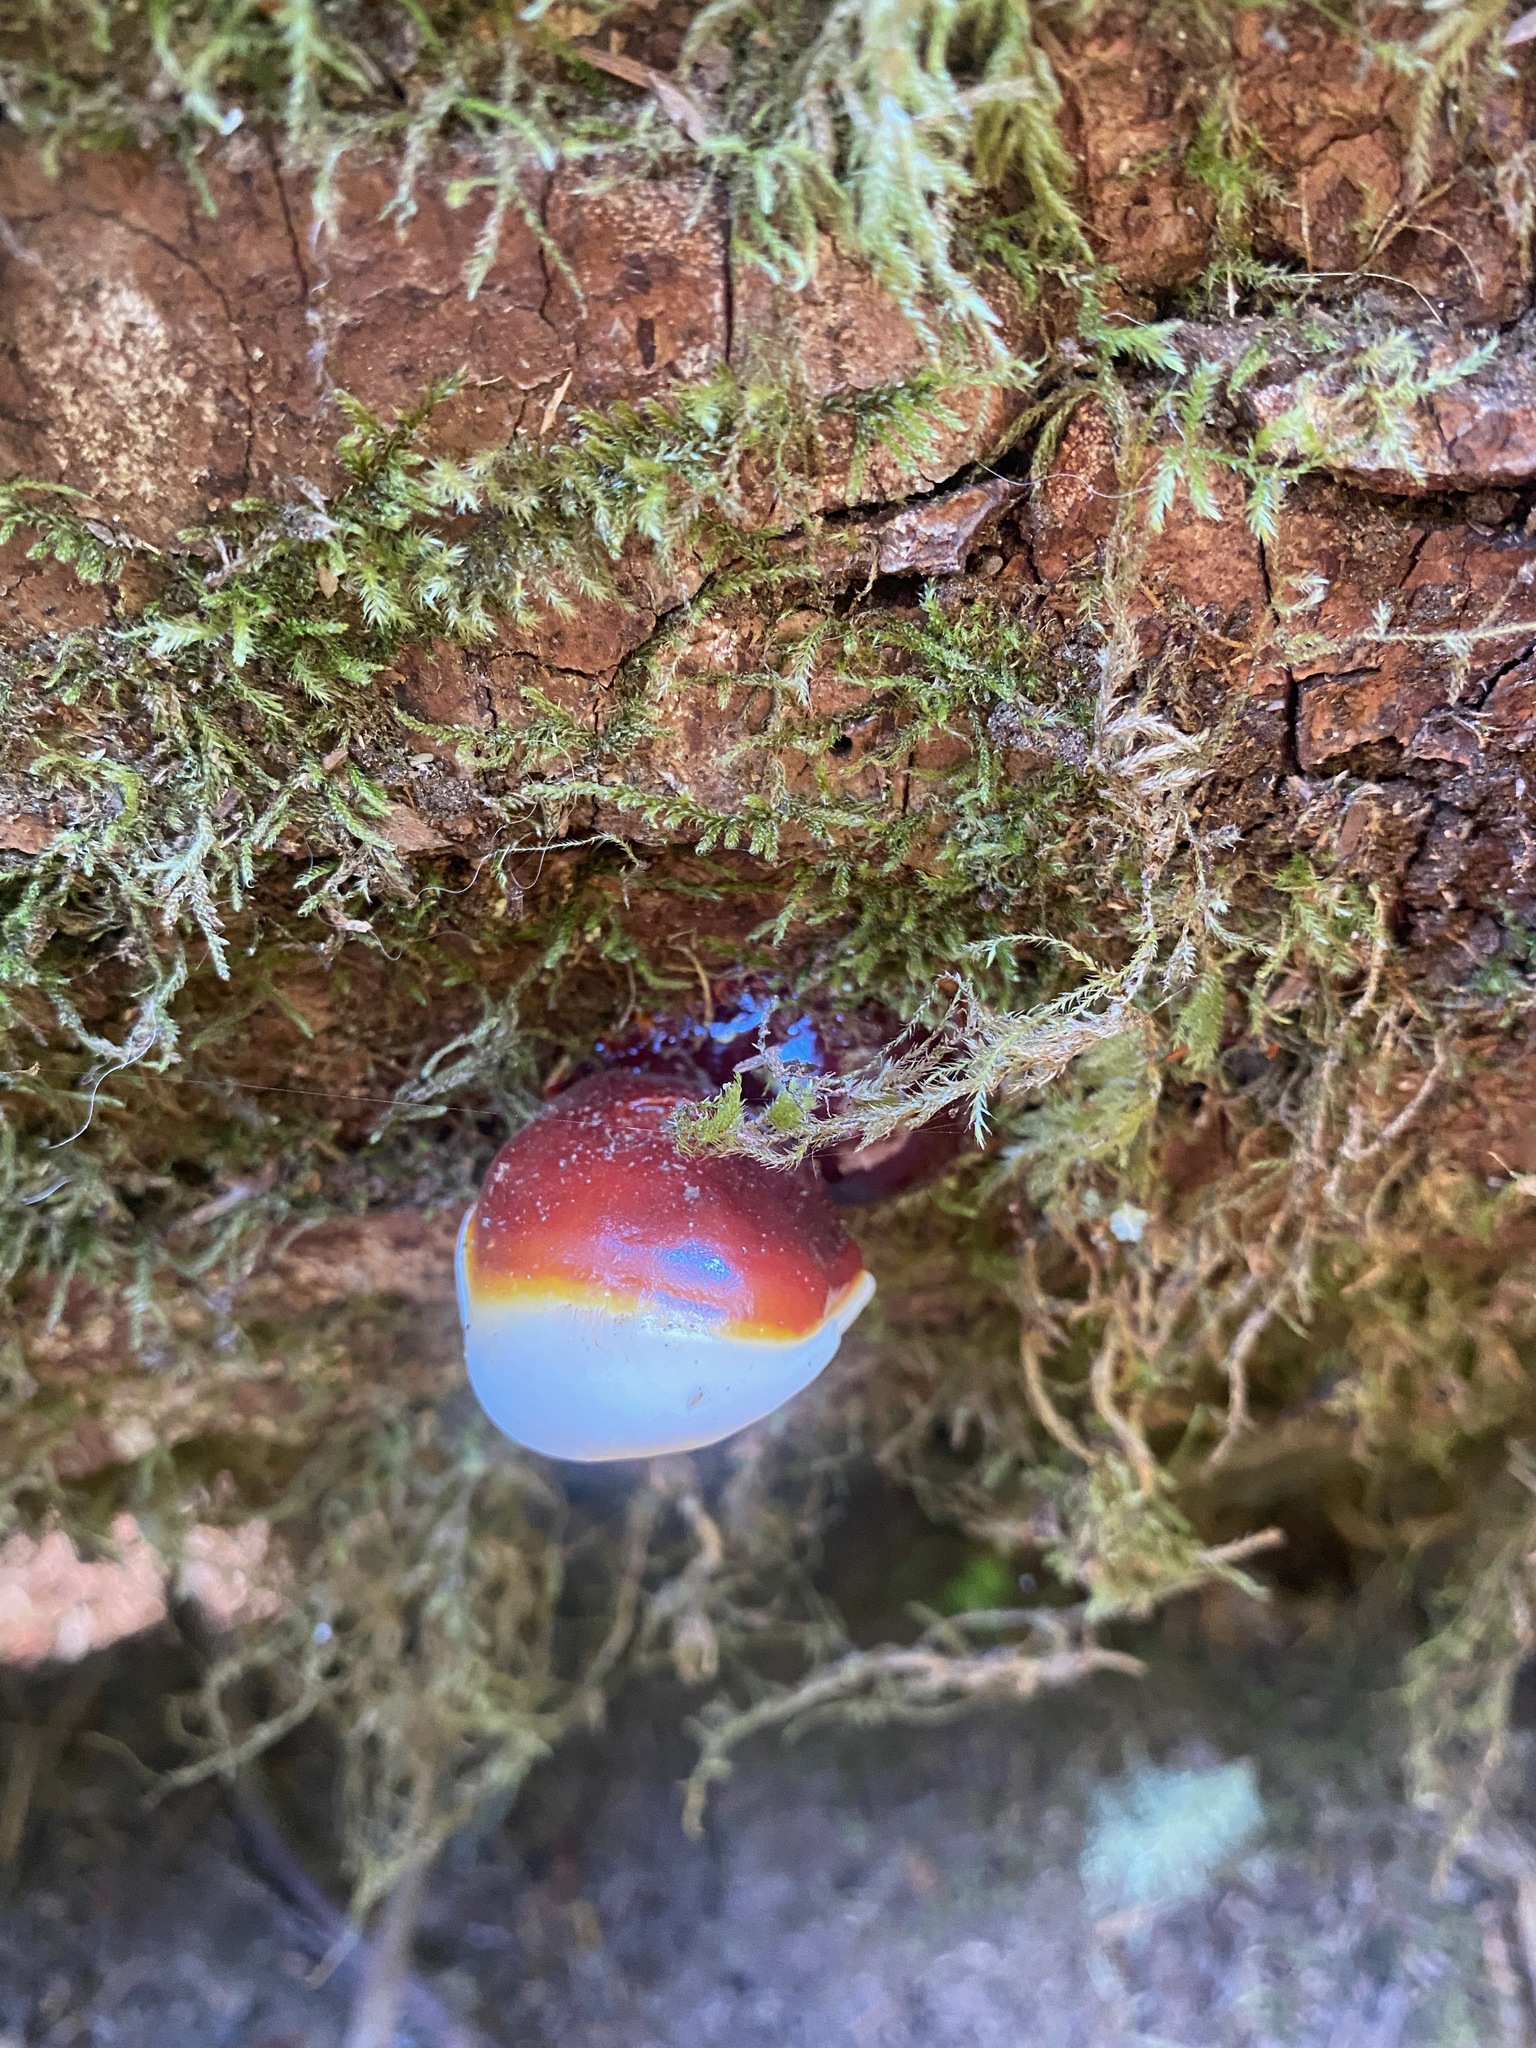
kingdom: Fungi
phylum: Basidiomycota
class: Agaricomycetes
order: Polyporales
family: Polyporaceae
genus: Ganoderma
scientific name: Ganoderma oregonense
